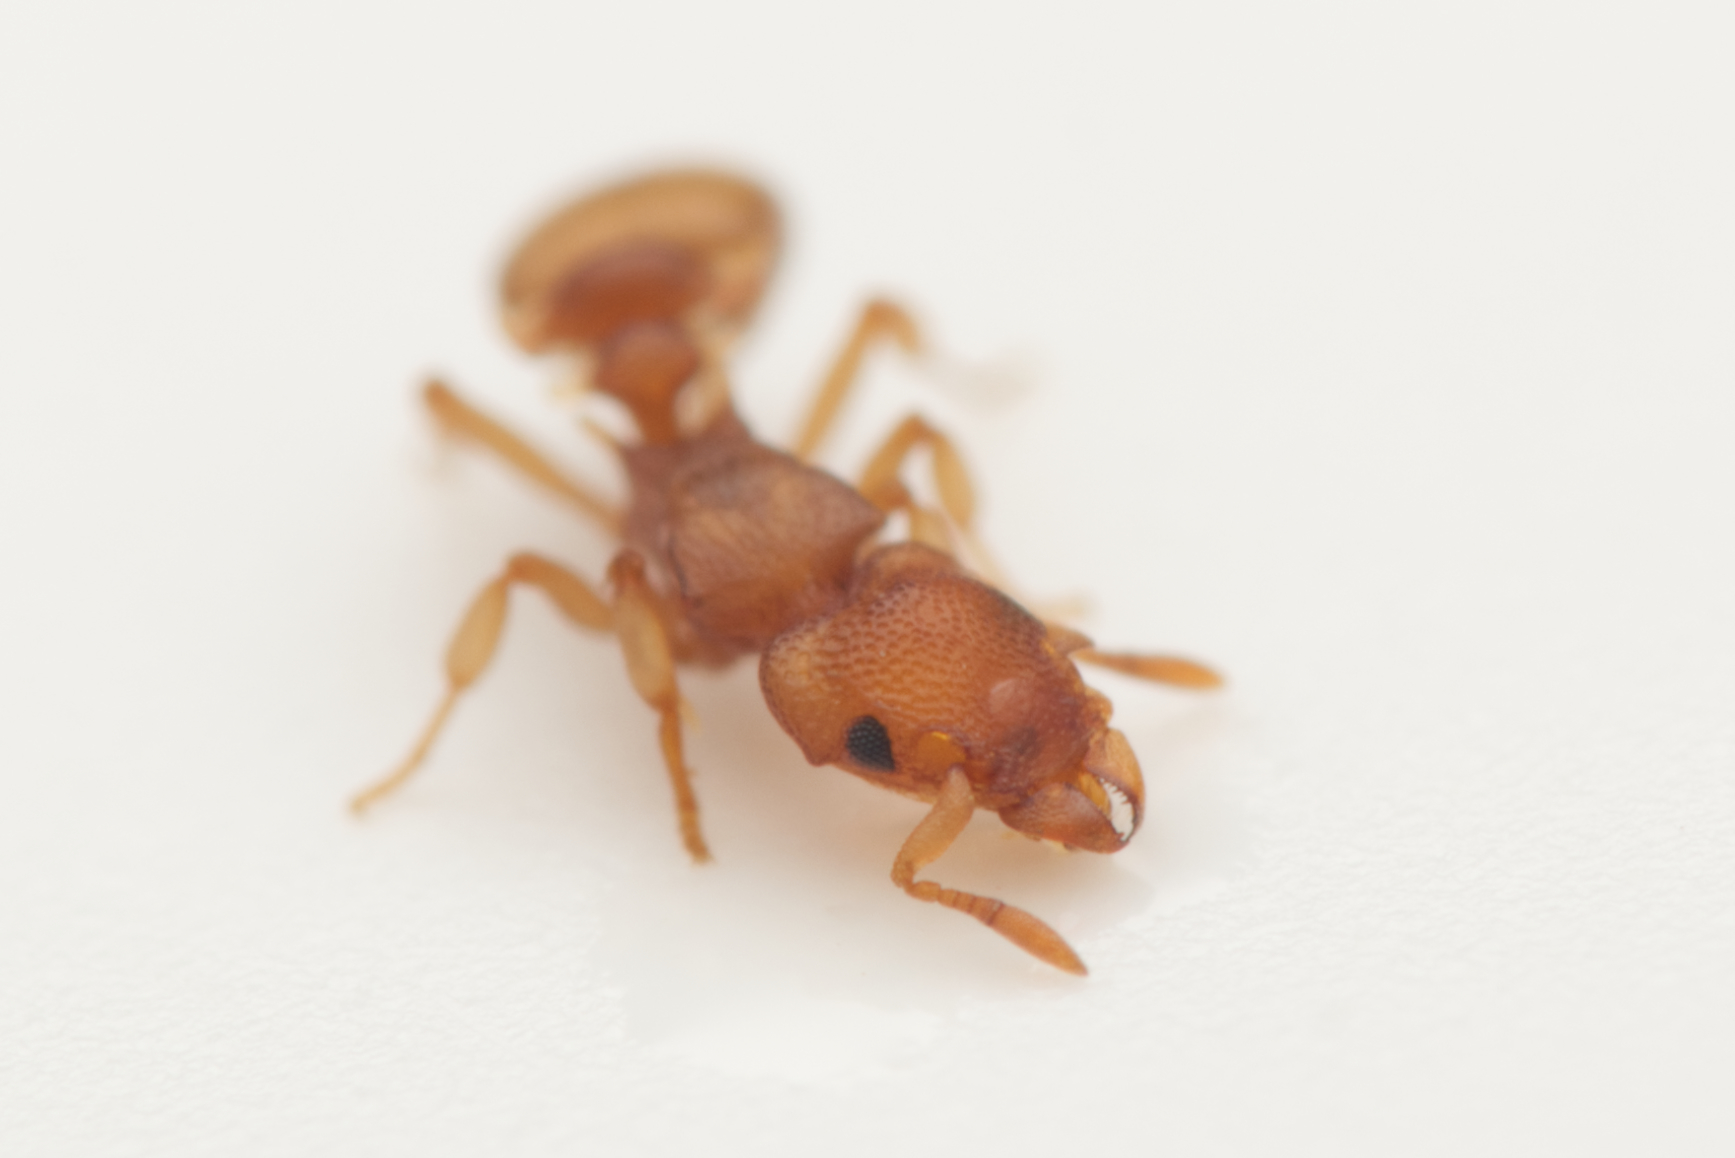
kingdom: Animalia
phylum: Arthropoda
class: Insecta
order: Hymenoptera
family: Formicidae
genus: Colobostruma
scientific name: Colobostruma
